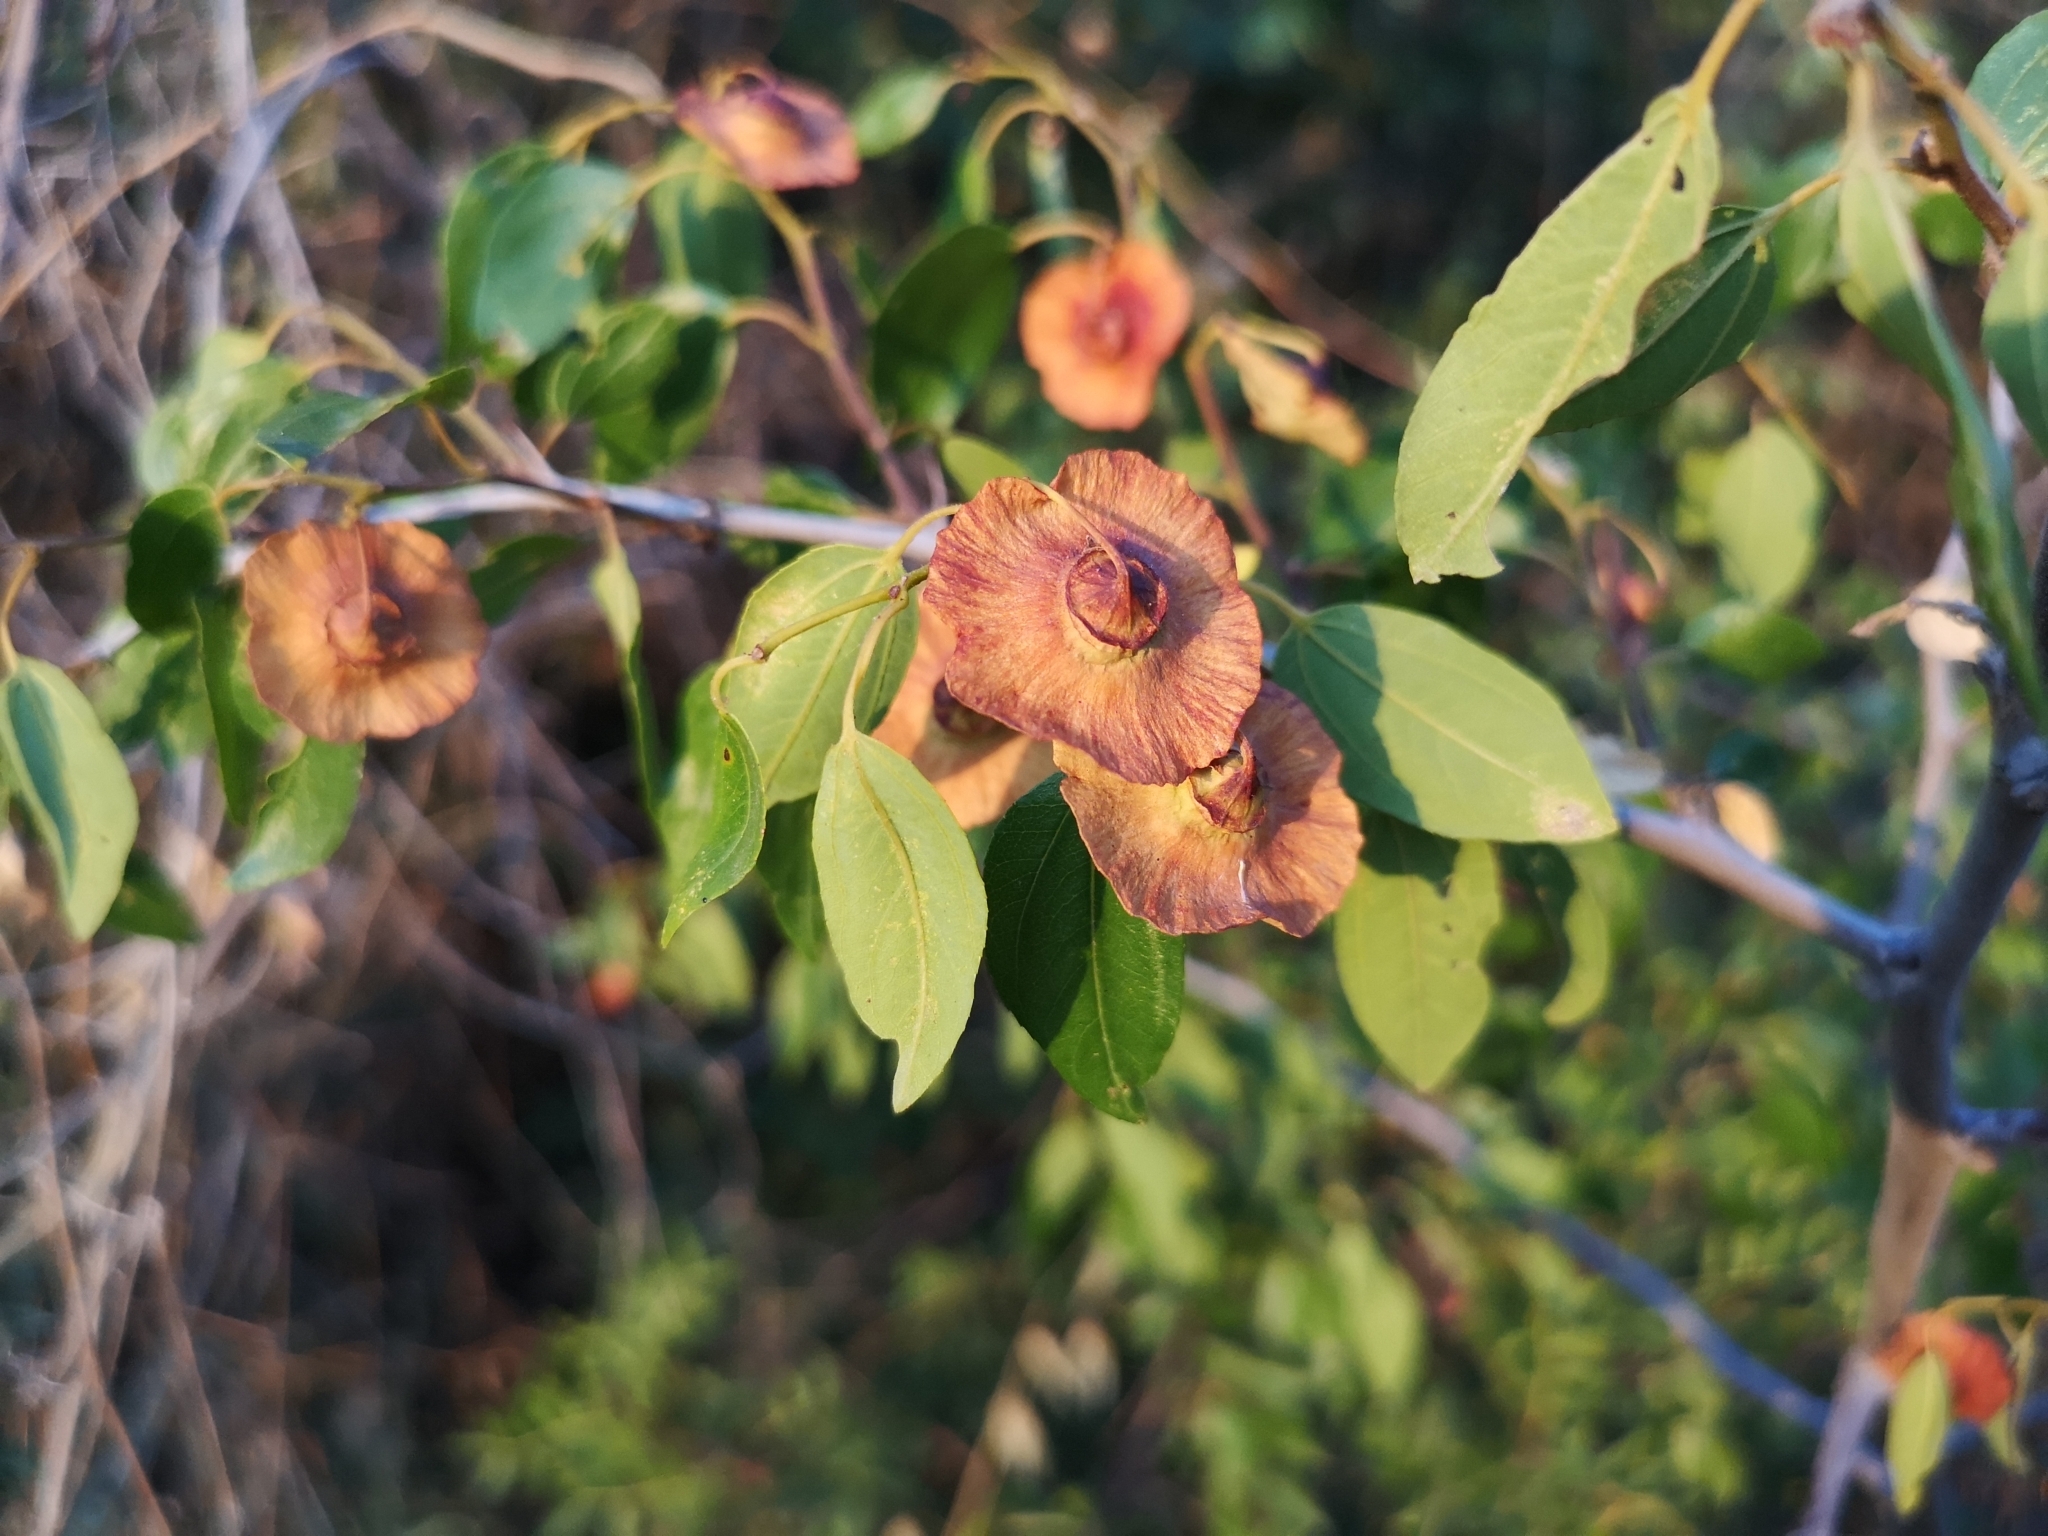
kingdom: Plantae
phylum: Tracheophyta
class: Magnoliopsida
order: Rosales
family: Rhamnaceae
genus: Paliurus
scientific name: Paliurus spina-christi
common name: Jeruselem thorn
